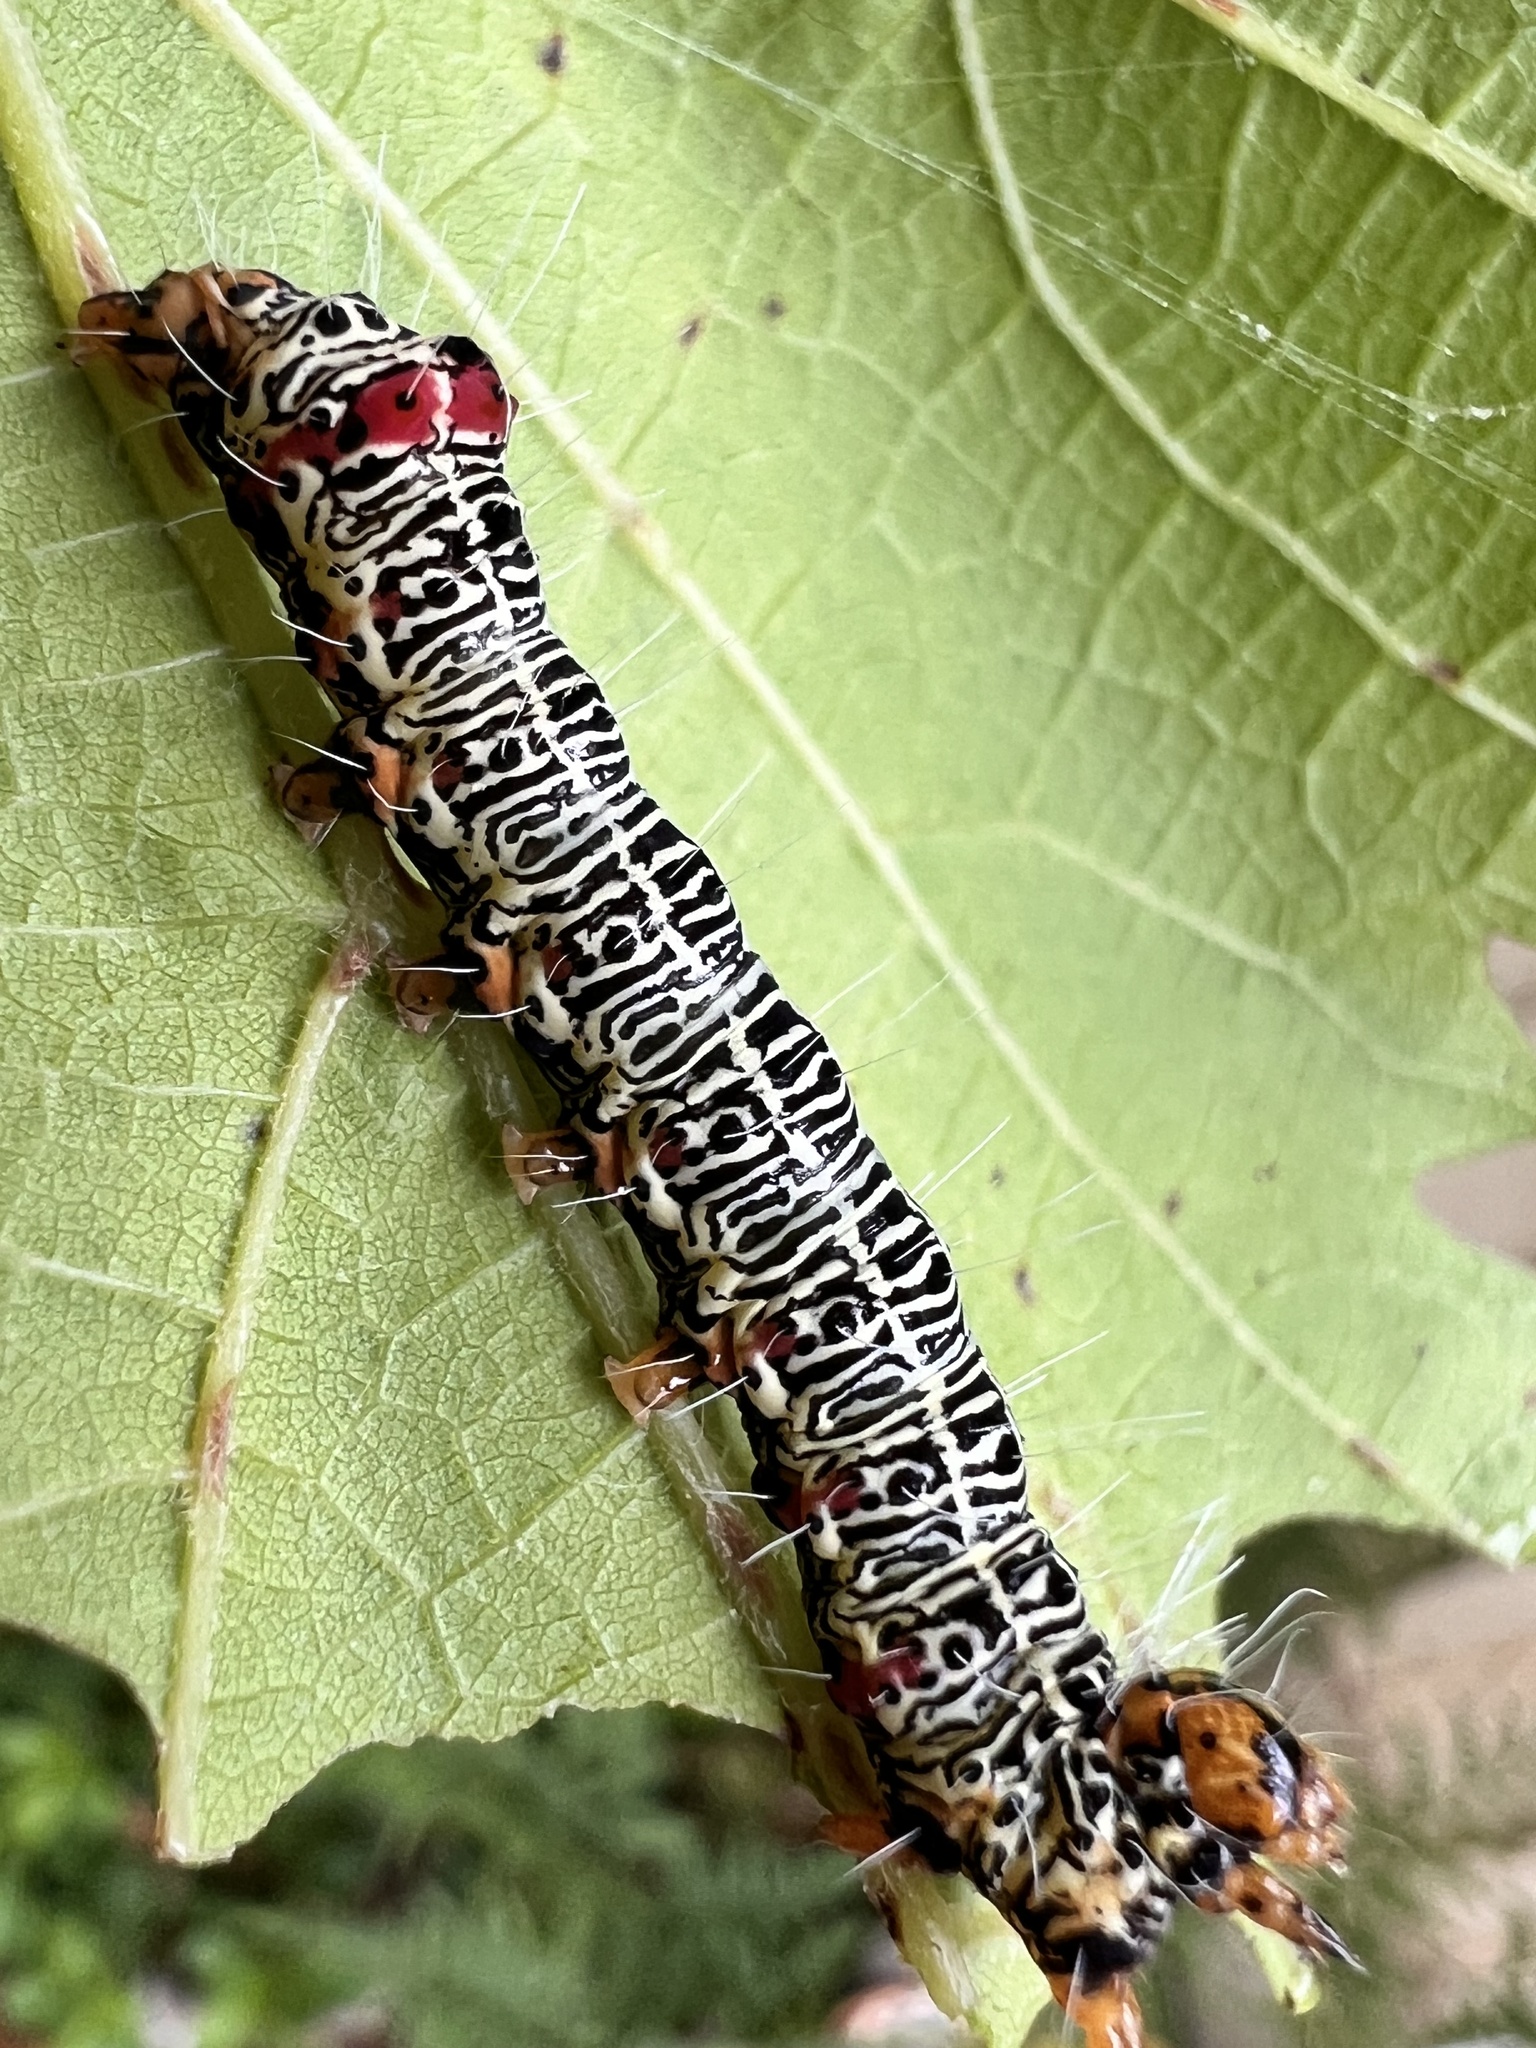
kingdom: Animalia
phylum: Arthropoda
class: Insecta
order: Lepidoptera
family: Noctuidae
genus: Phalaenoides
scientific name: Phalaenoides glycinae
